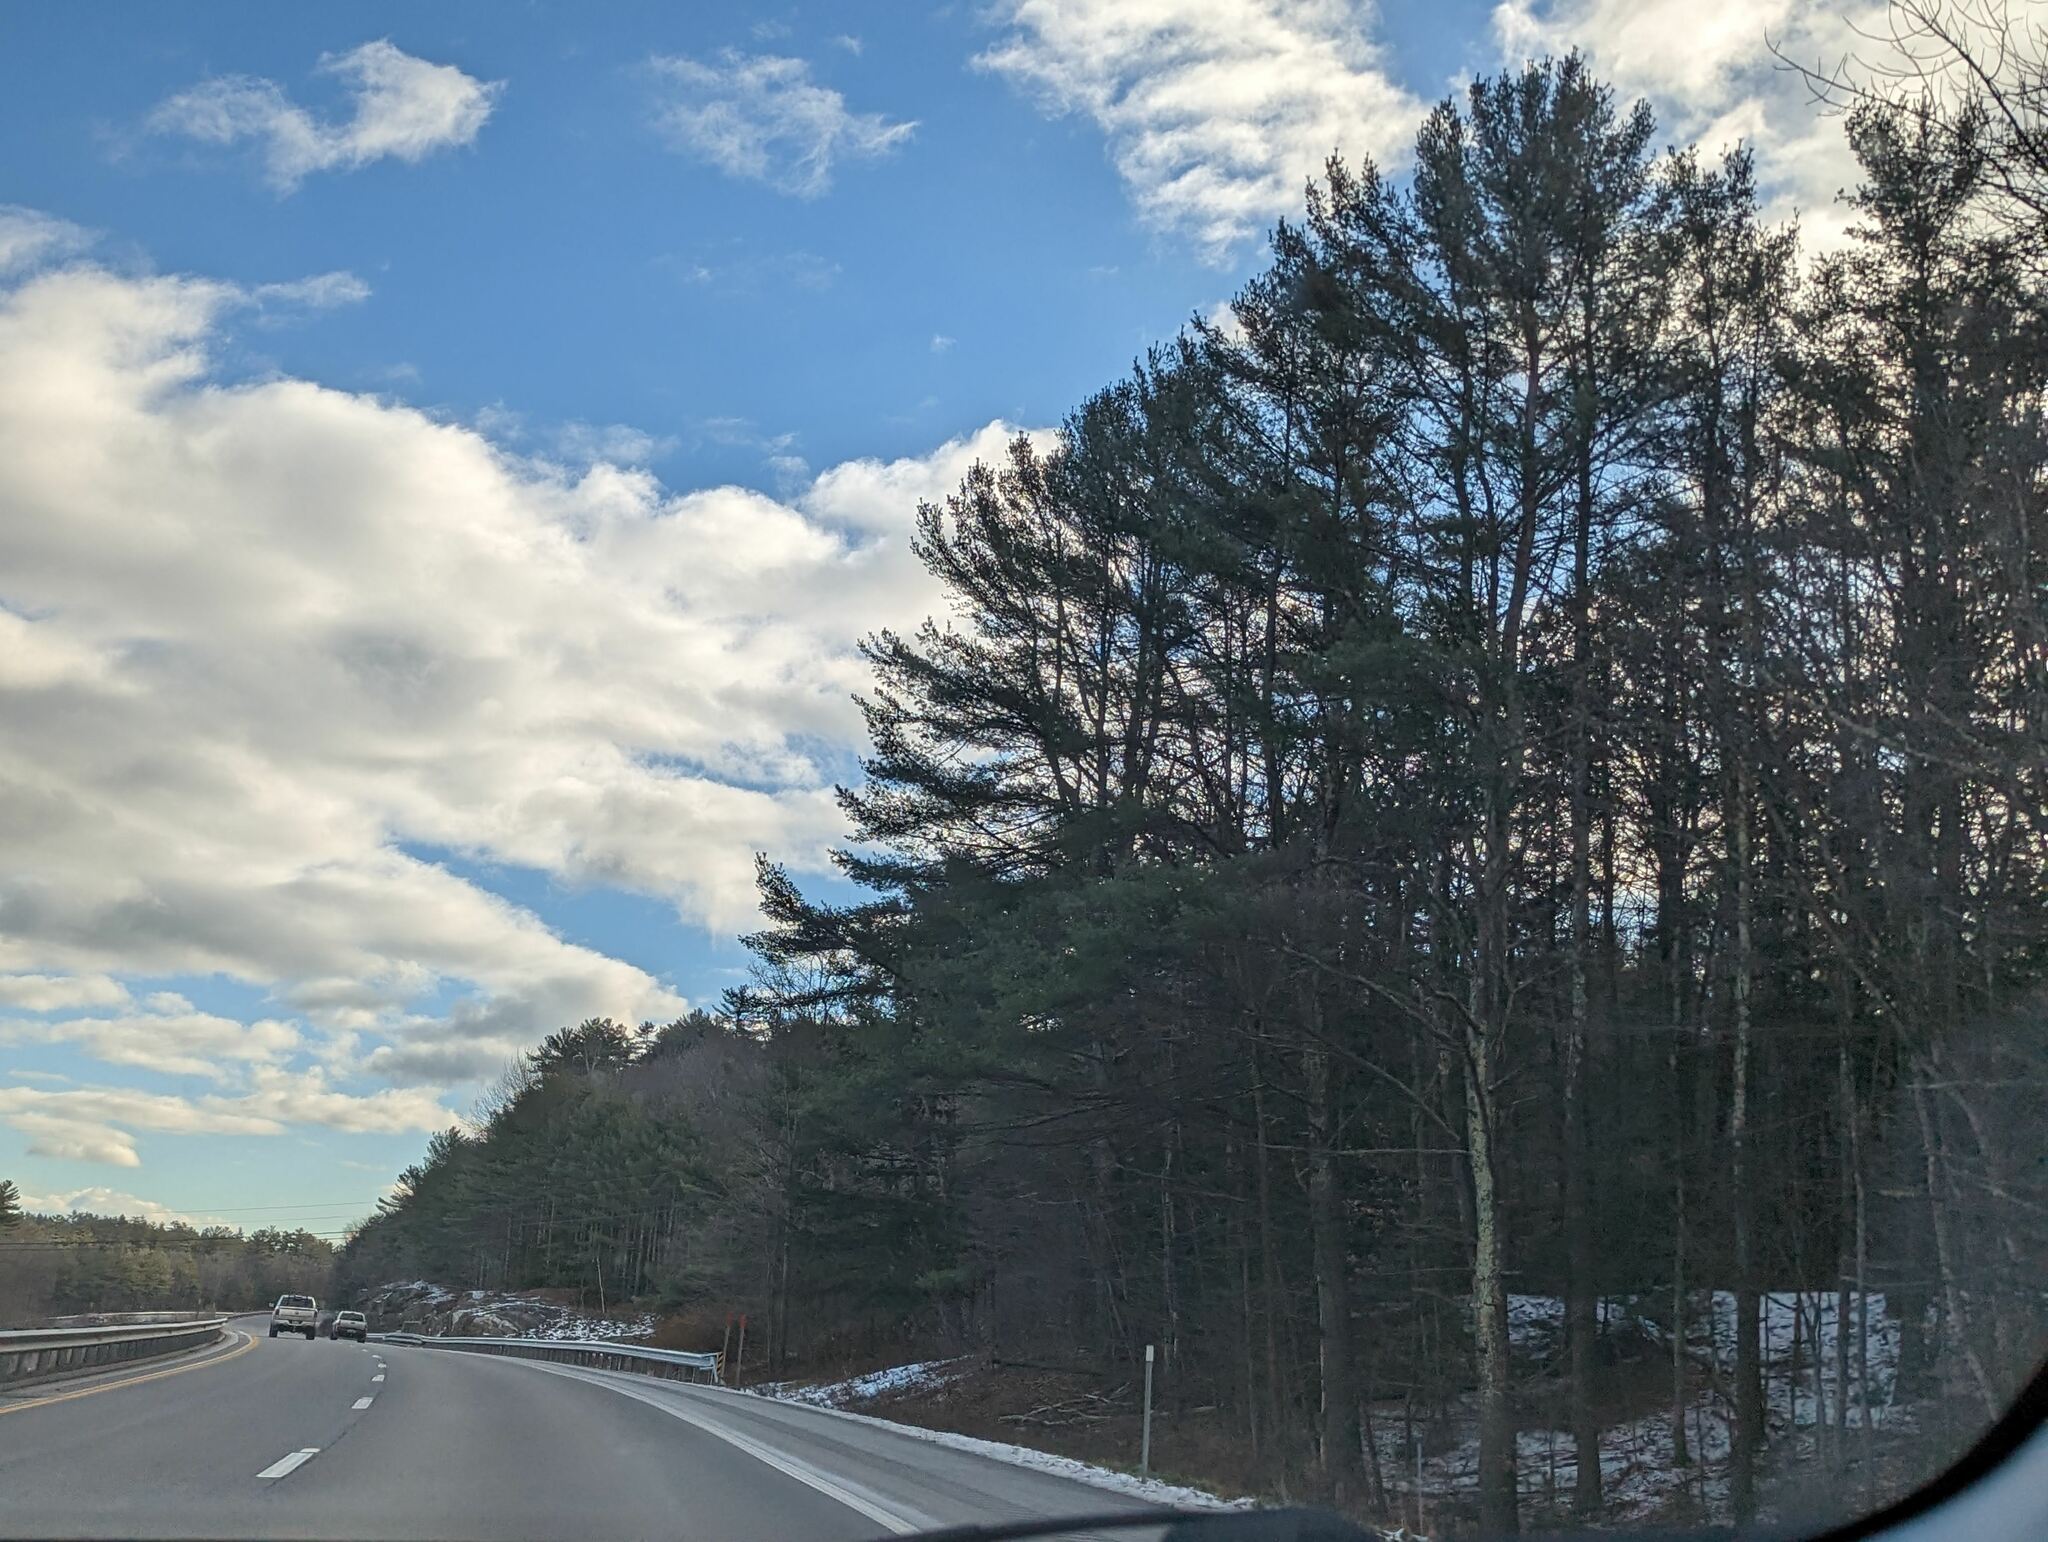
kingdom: Plantae
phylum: Tracheophyta
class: Pinopsida
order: Pinales
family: Pinaceae
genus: Pinus
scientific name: Pinus strobus
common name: Weymouth pine
